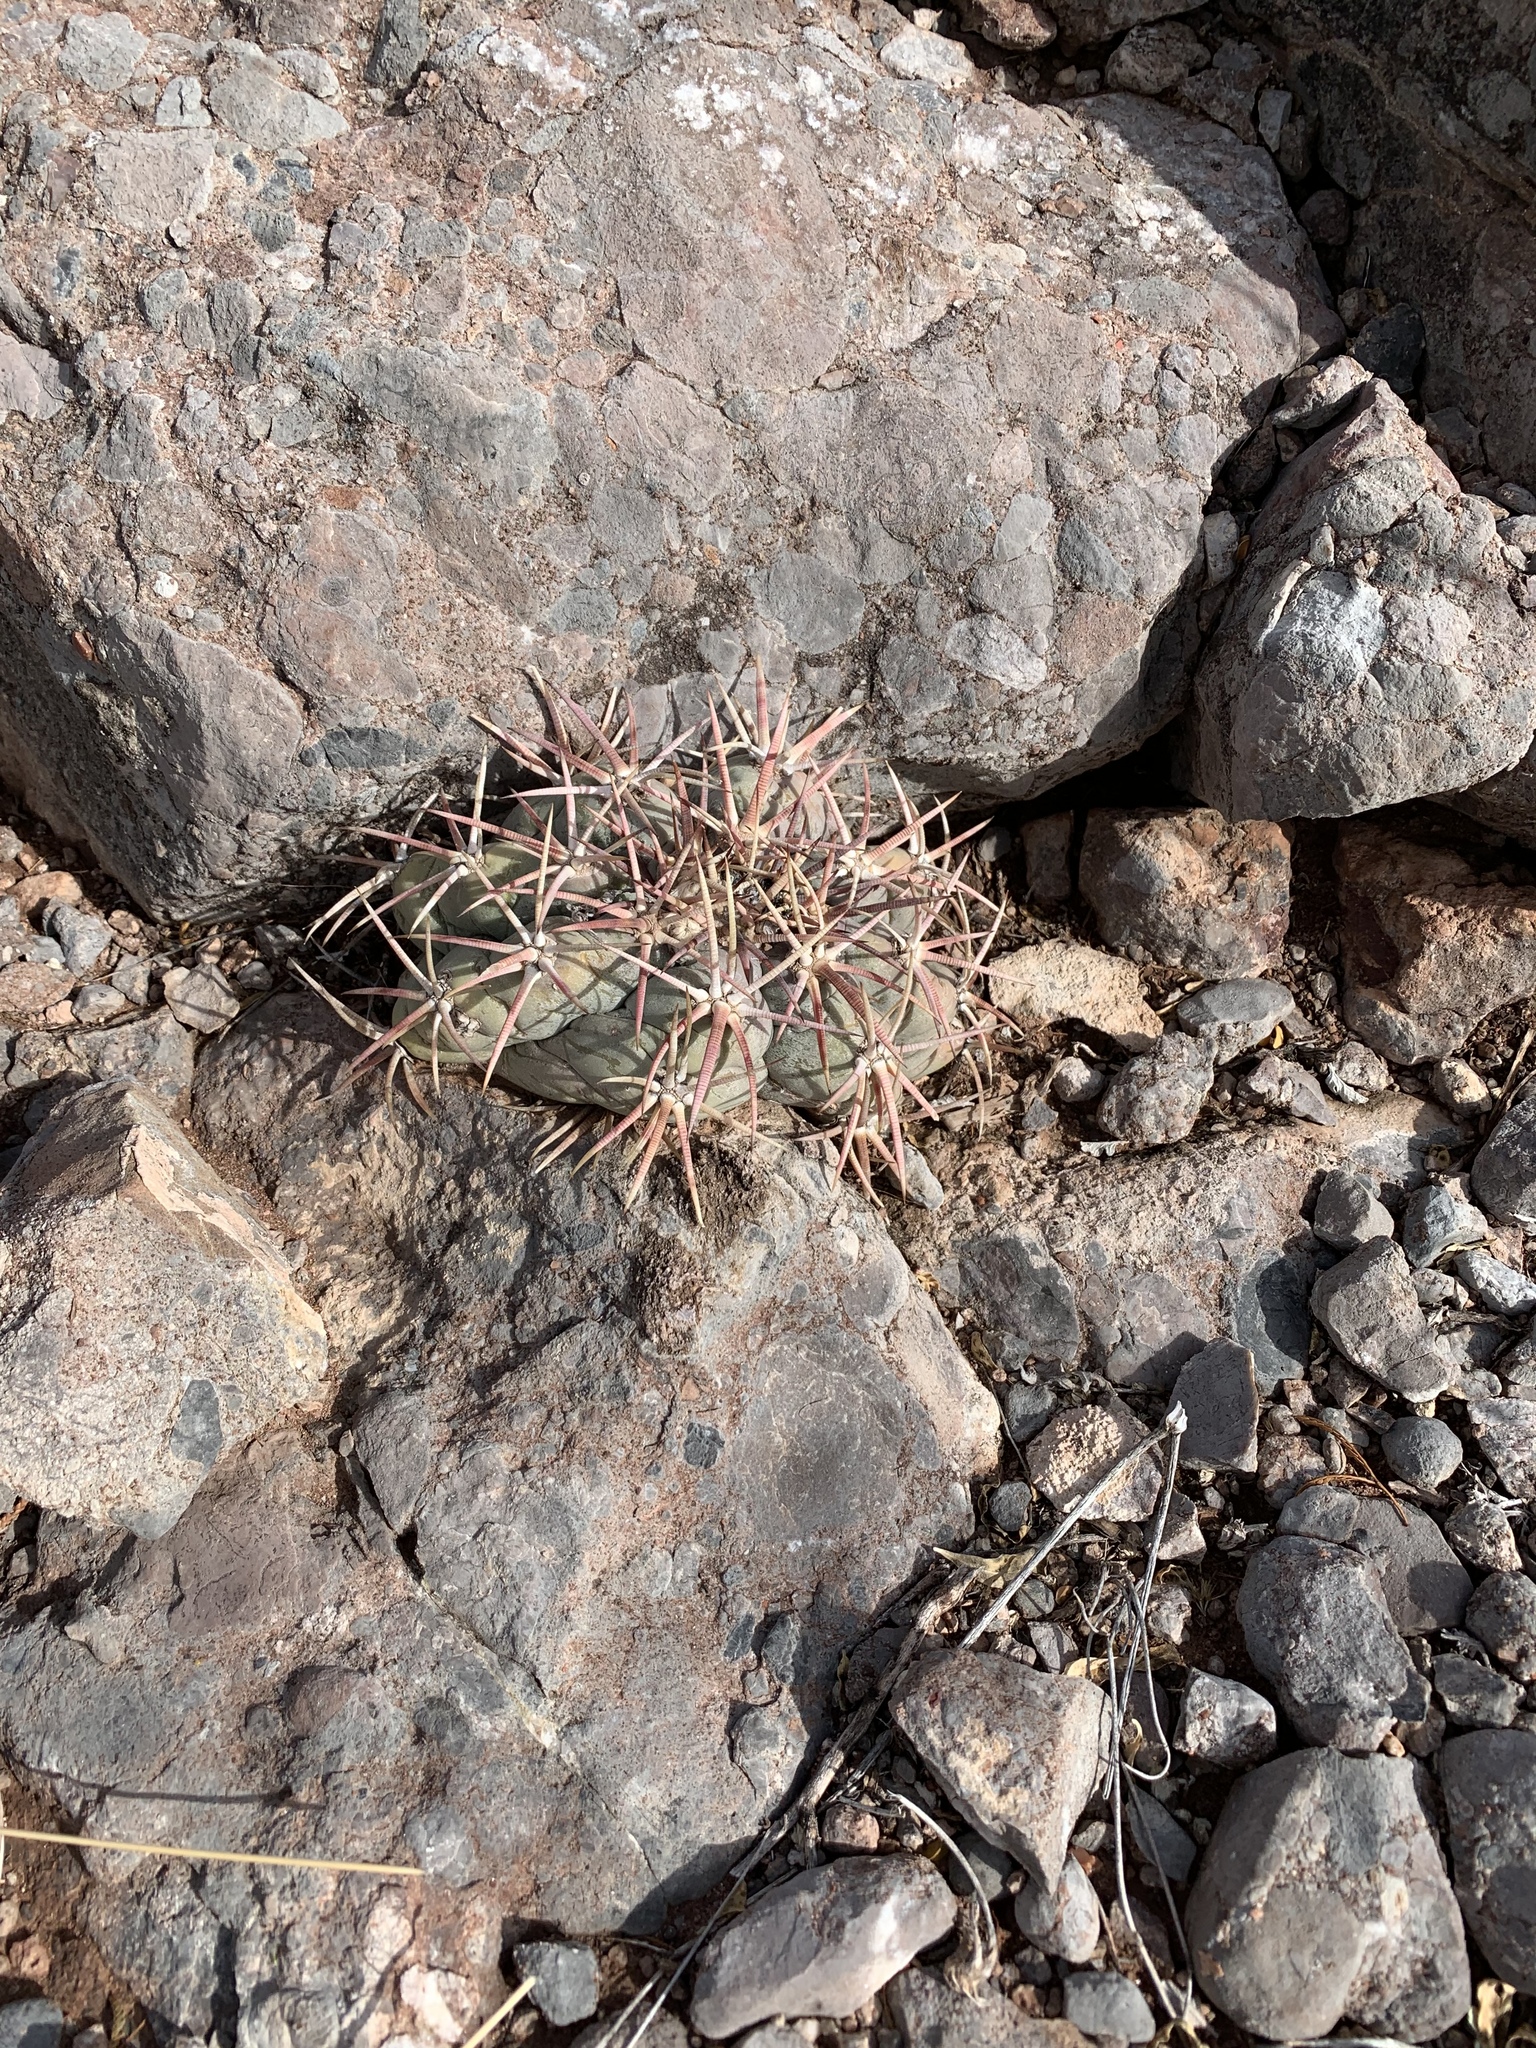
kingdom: Plantae
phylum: Tracheophyta
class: Magnoliopsida
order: Caryophyllales
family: Cactaceae
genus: Echinocactus
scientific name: Echinocactus horizonthalonius
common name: Devilshead
